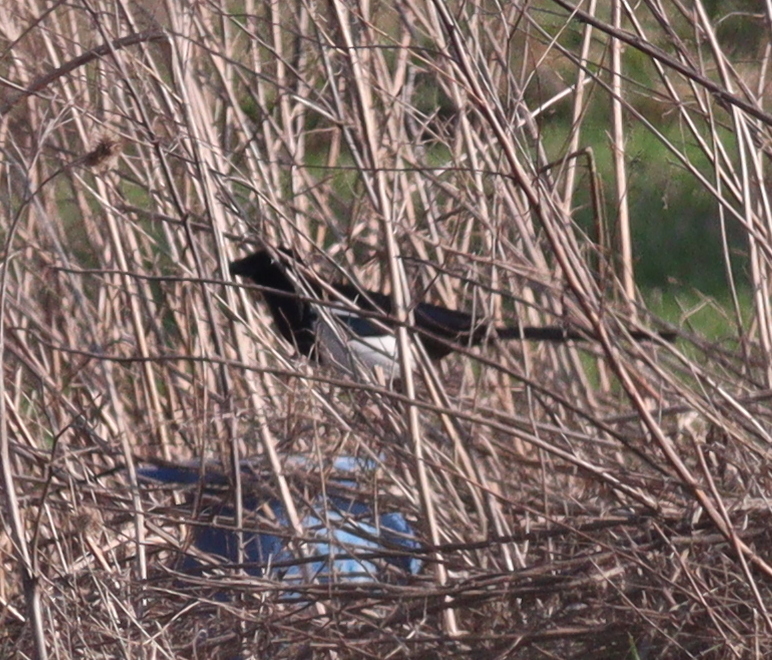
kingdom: Animalia
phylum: Chordata
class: Aves
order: Passeriformes
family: Corvidae
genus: Pica
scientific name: Pica pica
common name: Eurasian magpie
